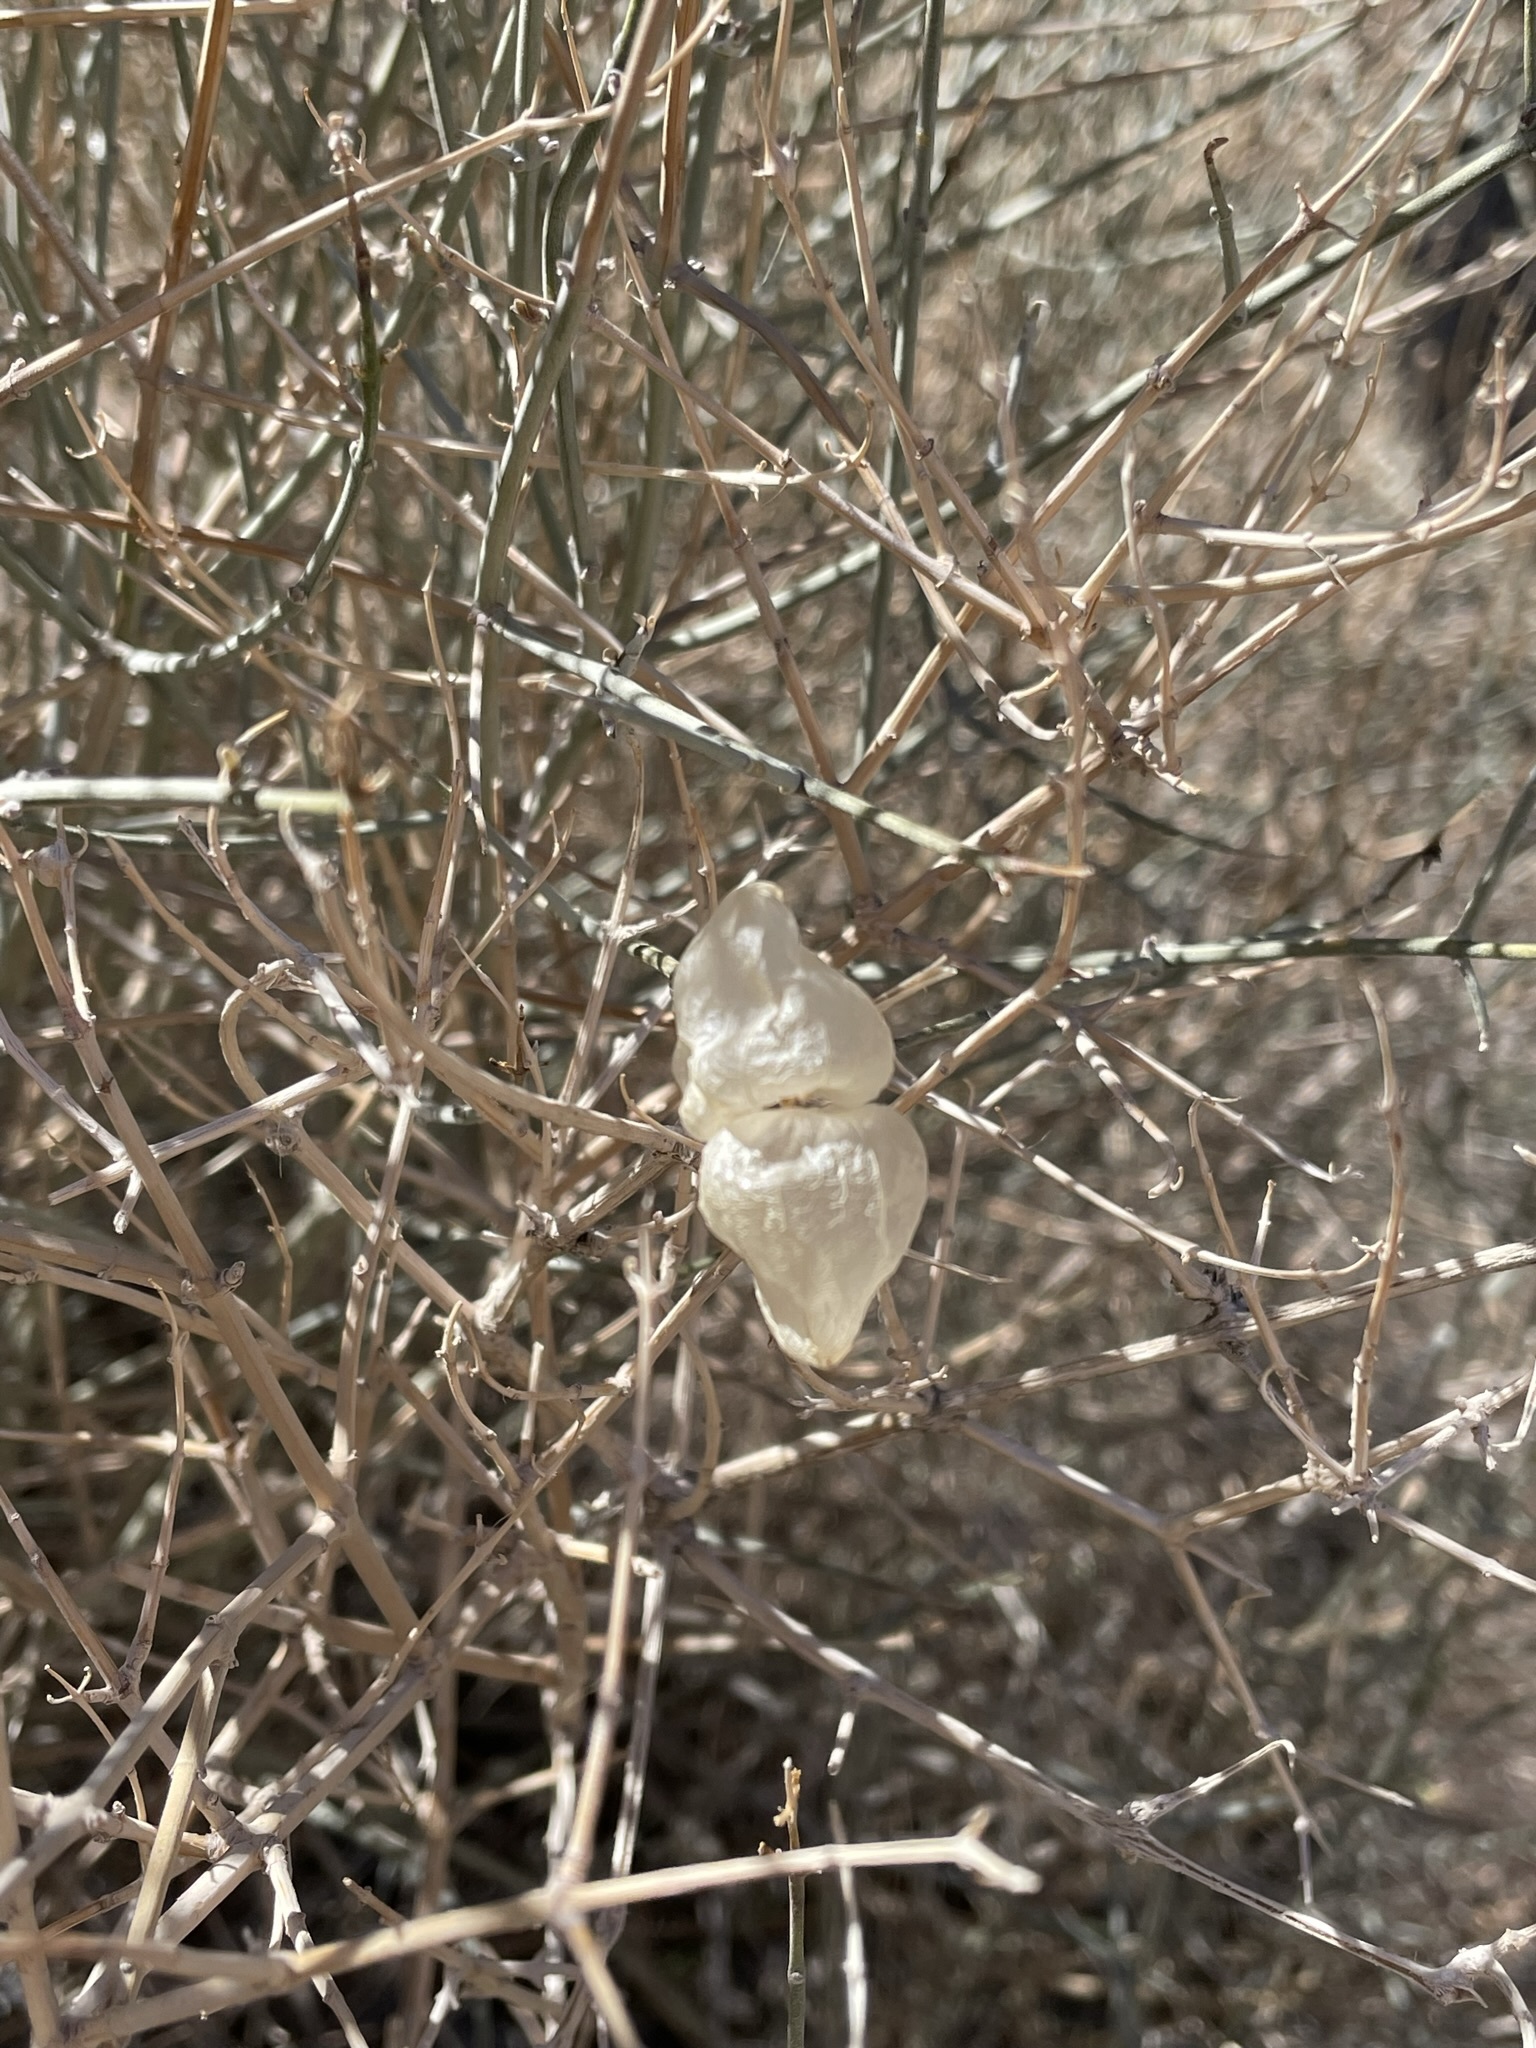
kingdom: Plantae
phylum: Tracheophyta
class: Magnoliopsida
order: Lamiales
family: Lamiaceae
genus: Scutellaria
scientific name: Scutellaria mexicana
